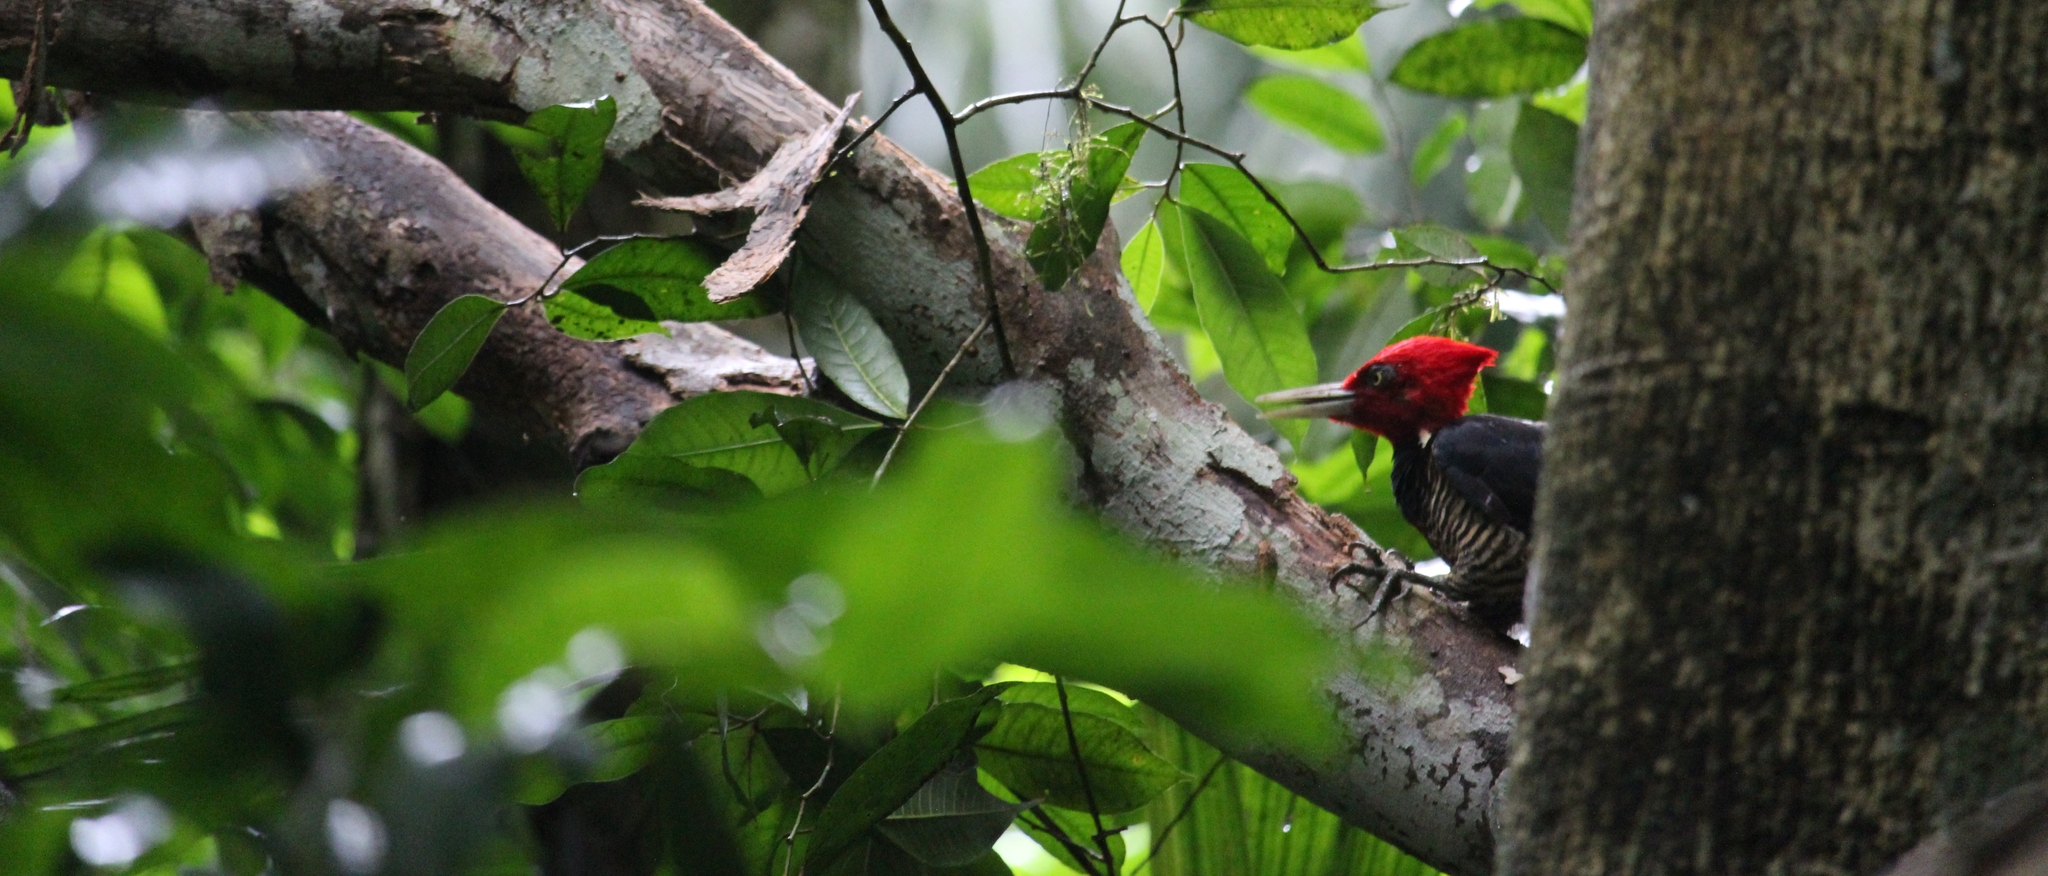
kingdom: Animalia
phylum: Chordata
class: Aves
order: Piciformes
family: Picidae
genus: Campephilus
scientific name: Campephilus guatemalensis
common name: Pale-billed woodpecker
